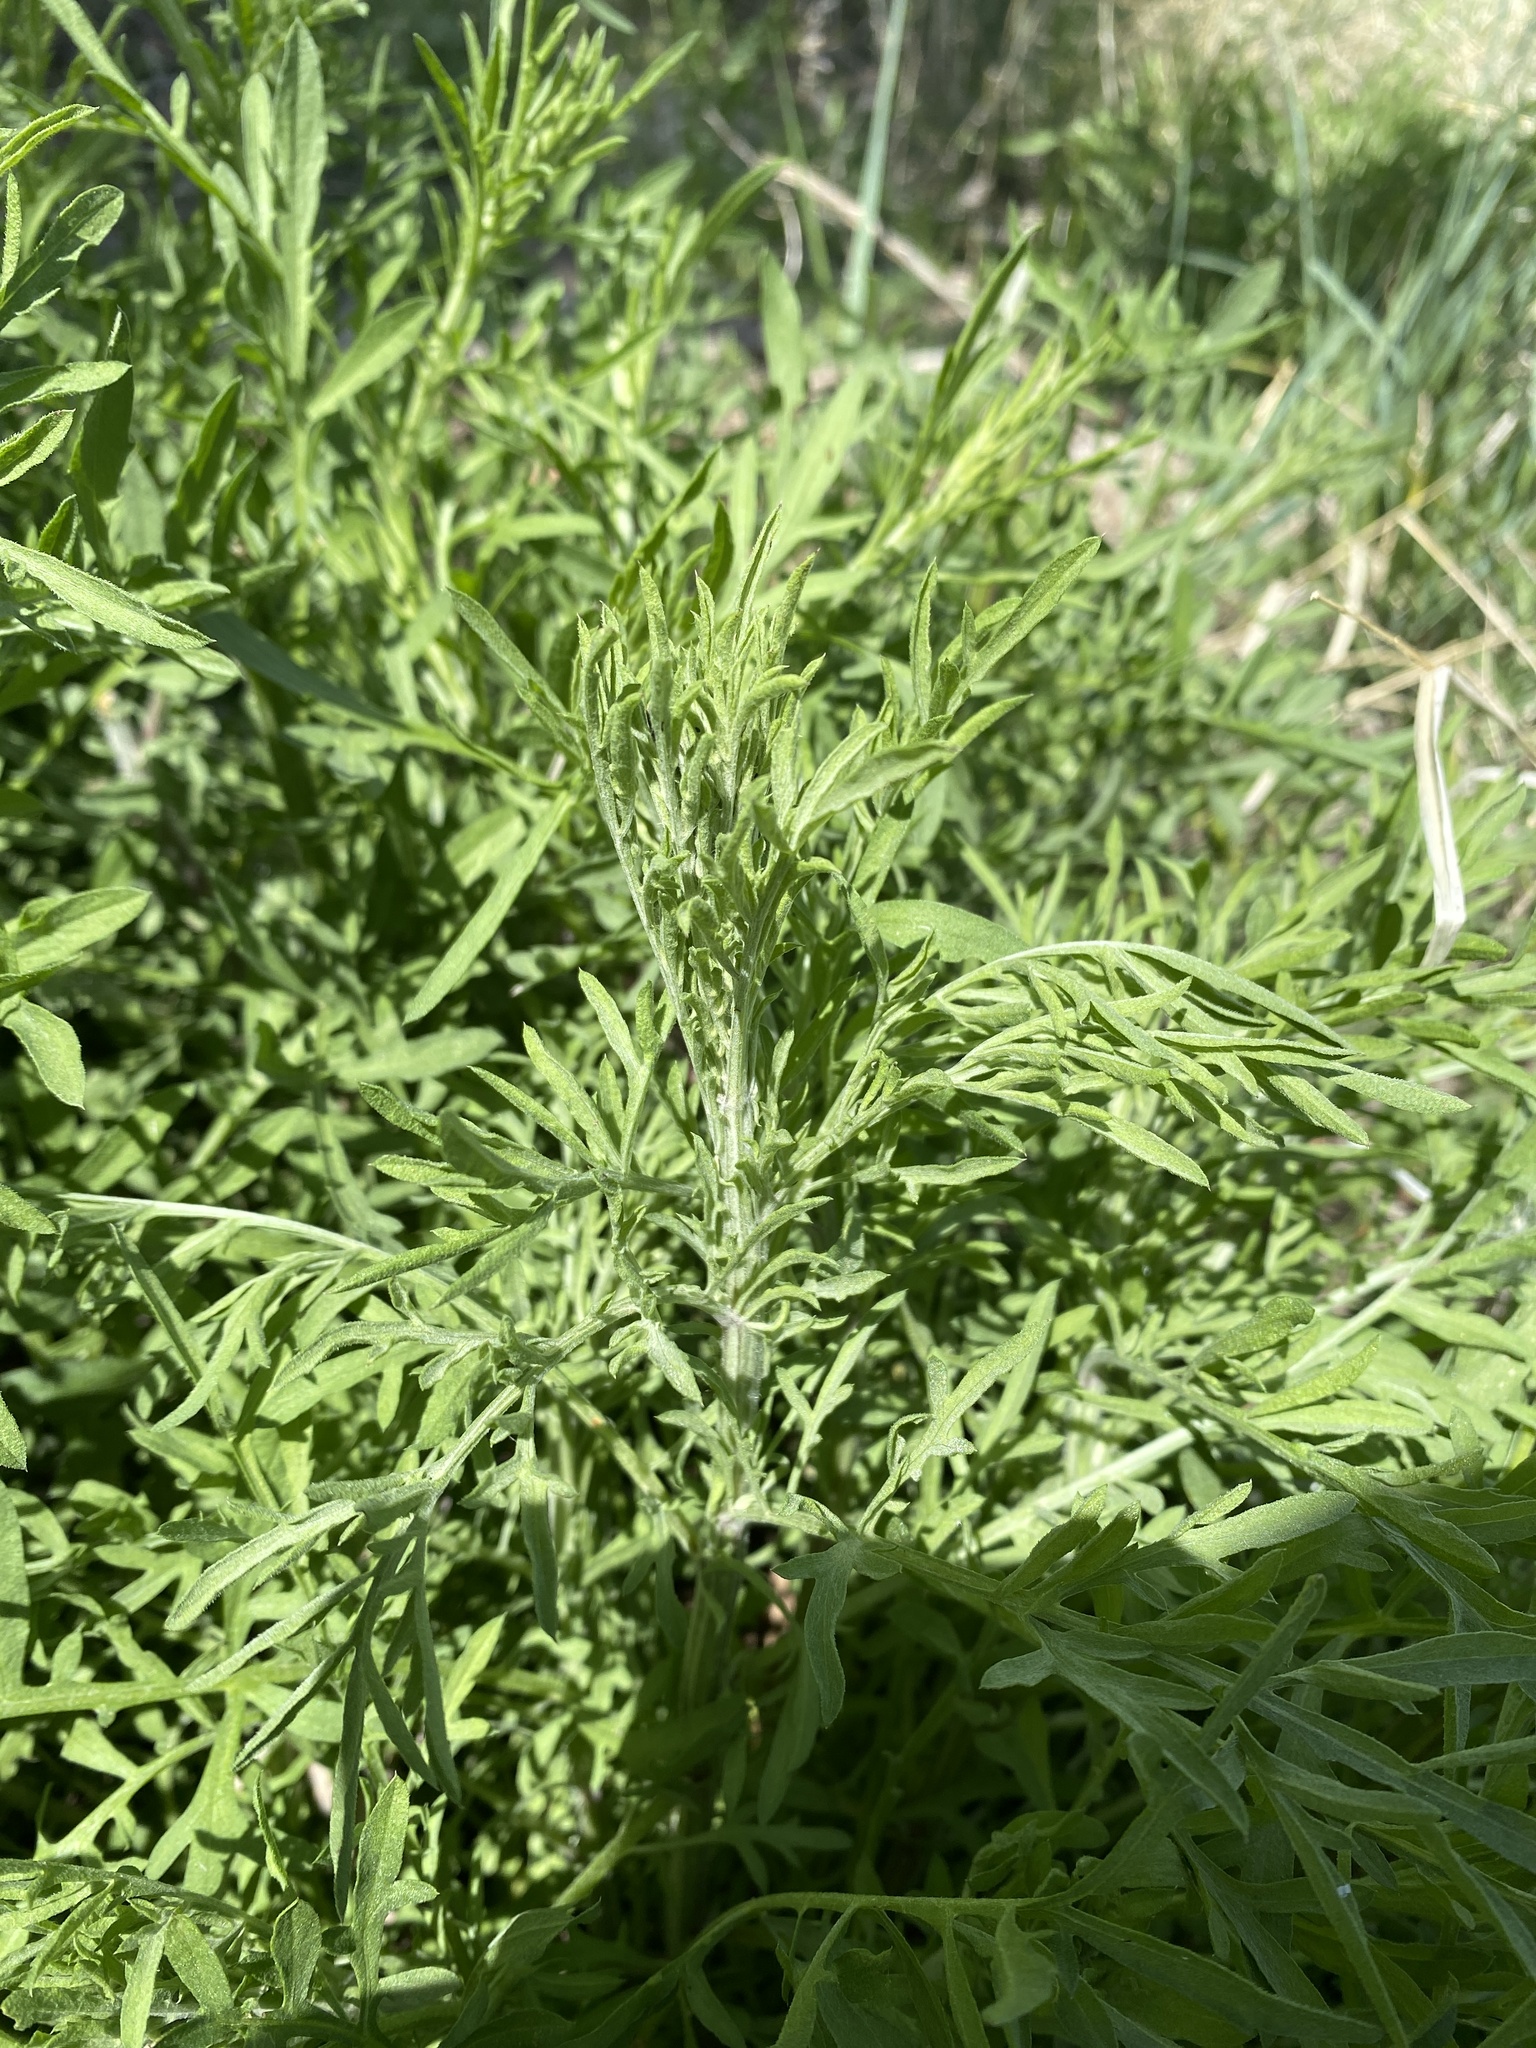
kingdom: Plantae
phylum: Tracheophyta
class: Magnoliopsida
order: Asterales
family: Asteraceae
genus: Centaurea
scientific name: Centaurea diffusa
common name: Diffuse knapweed
